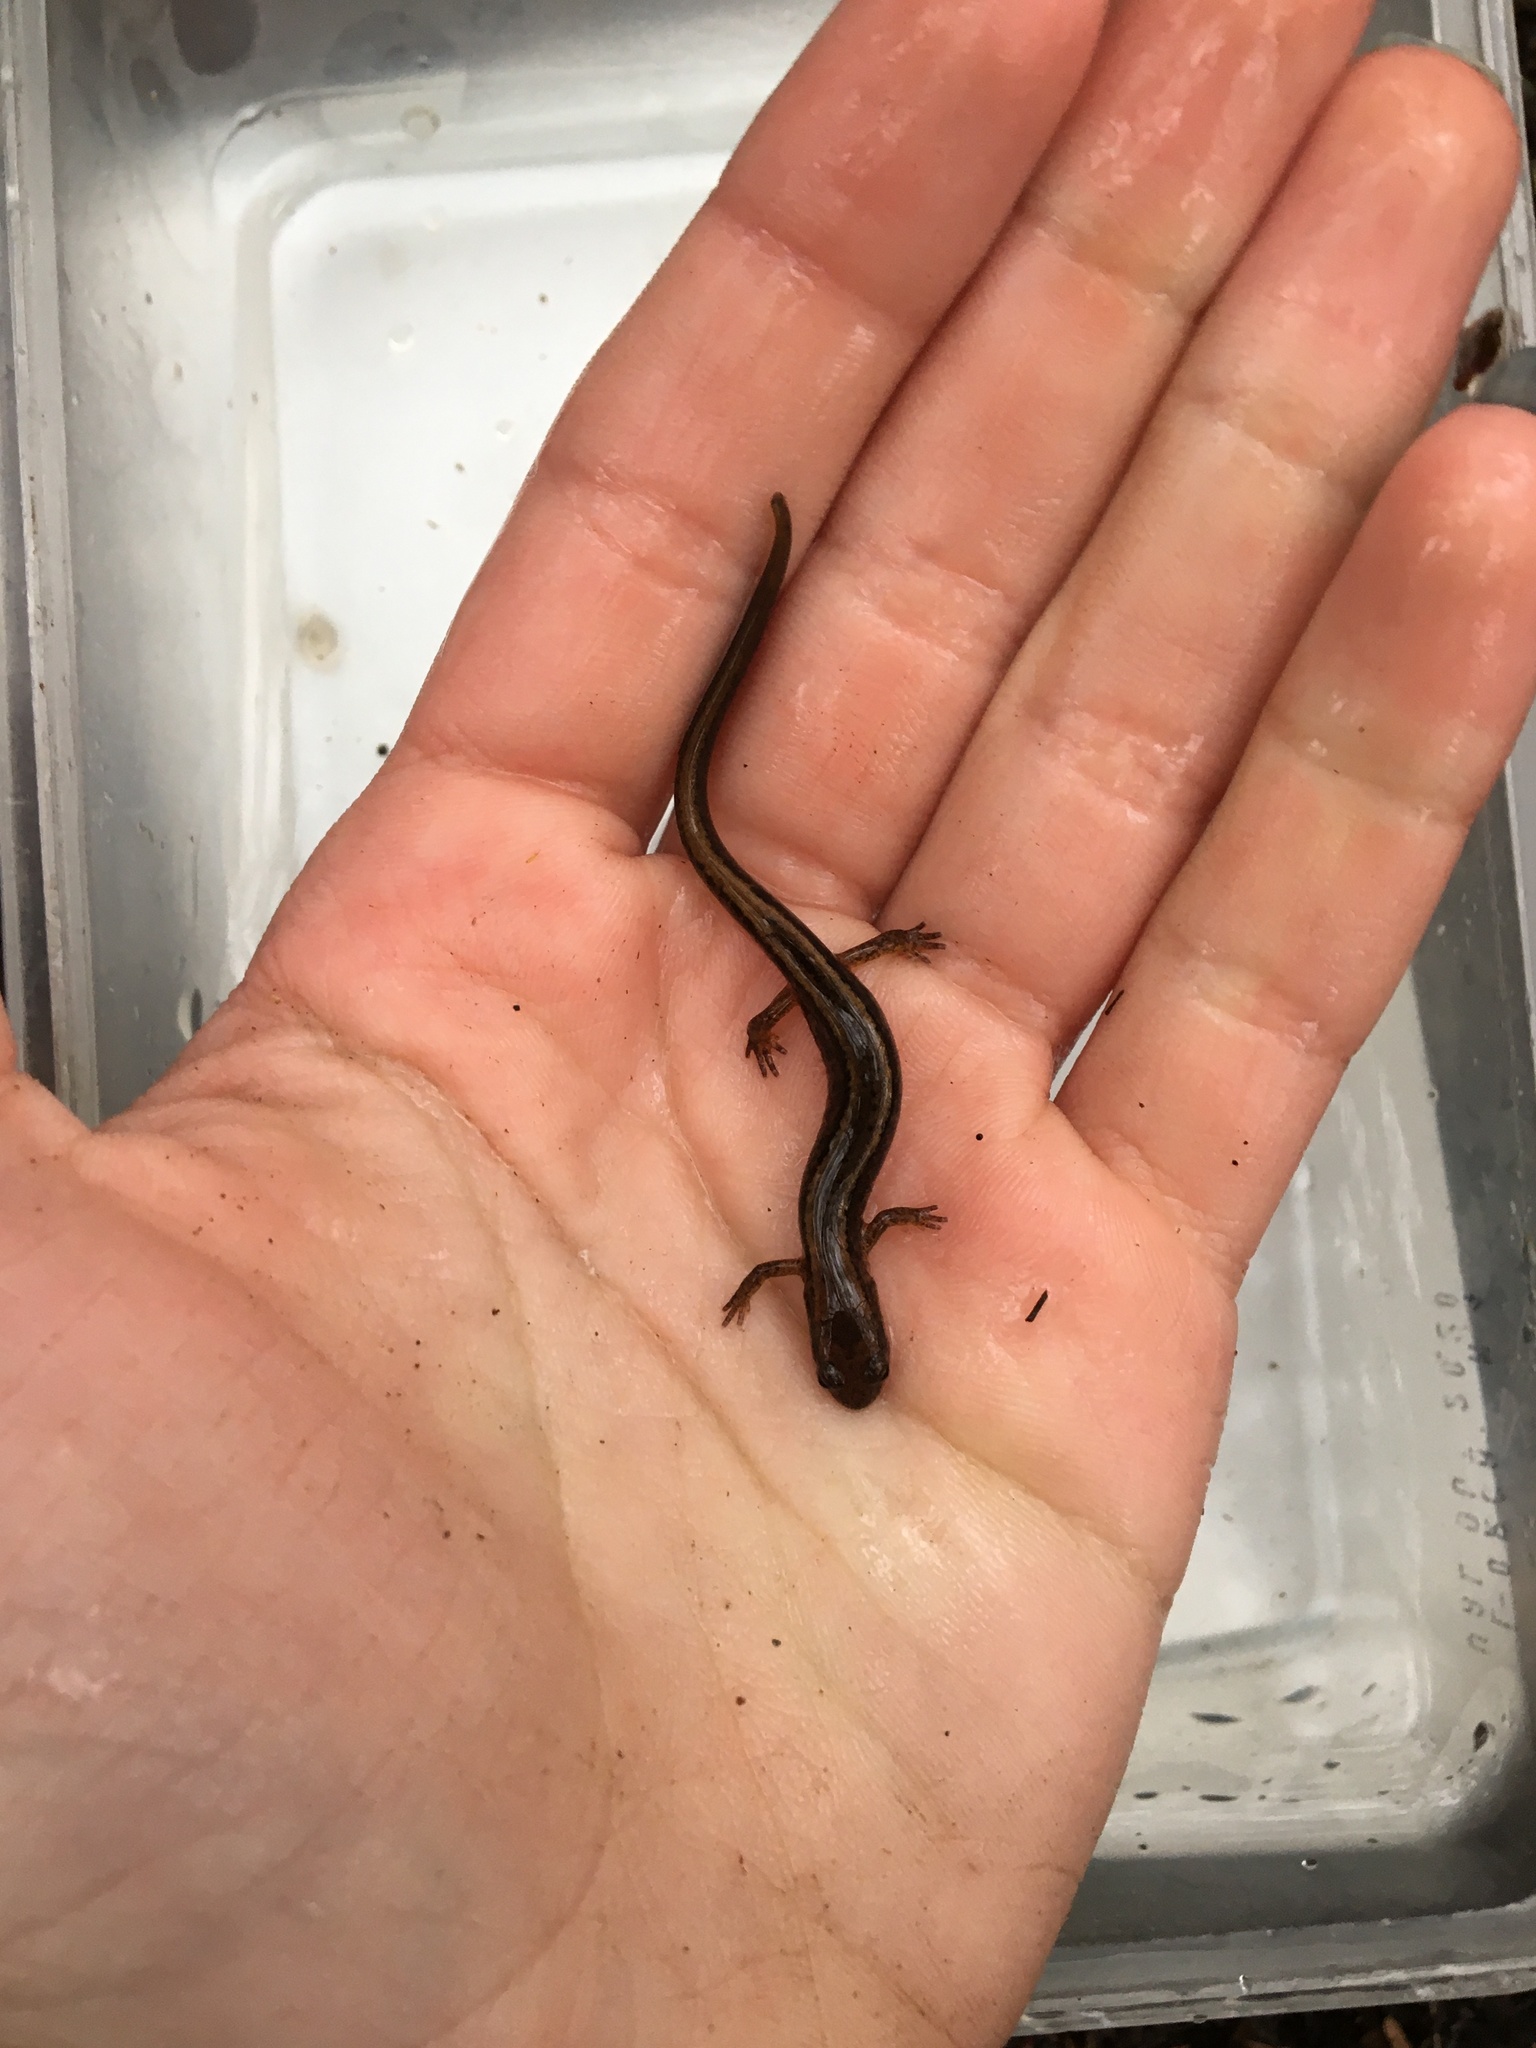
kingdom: Animalia
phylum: Chordata
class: Amphibia
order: Caudata
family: Plethodontidae
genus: Eurycea
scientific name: Eurycea bislineata
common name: Northern two-lined salamander
